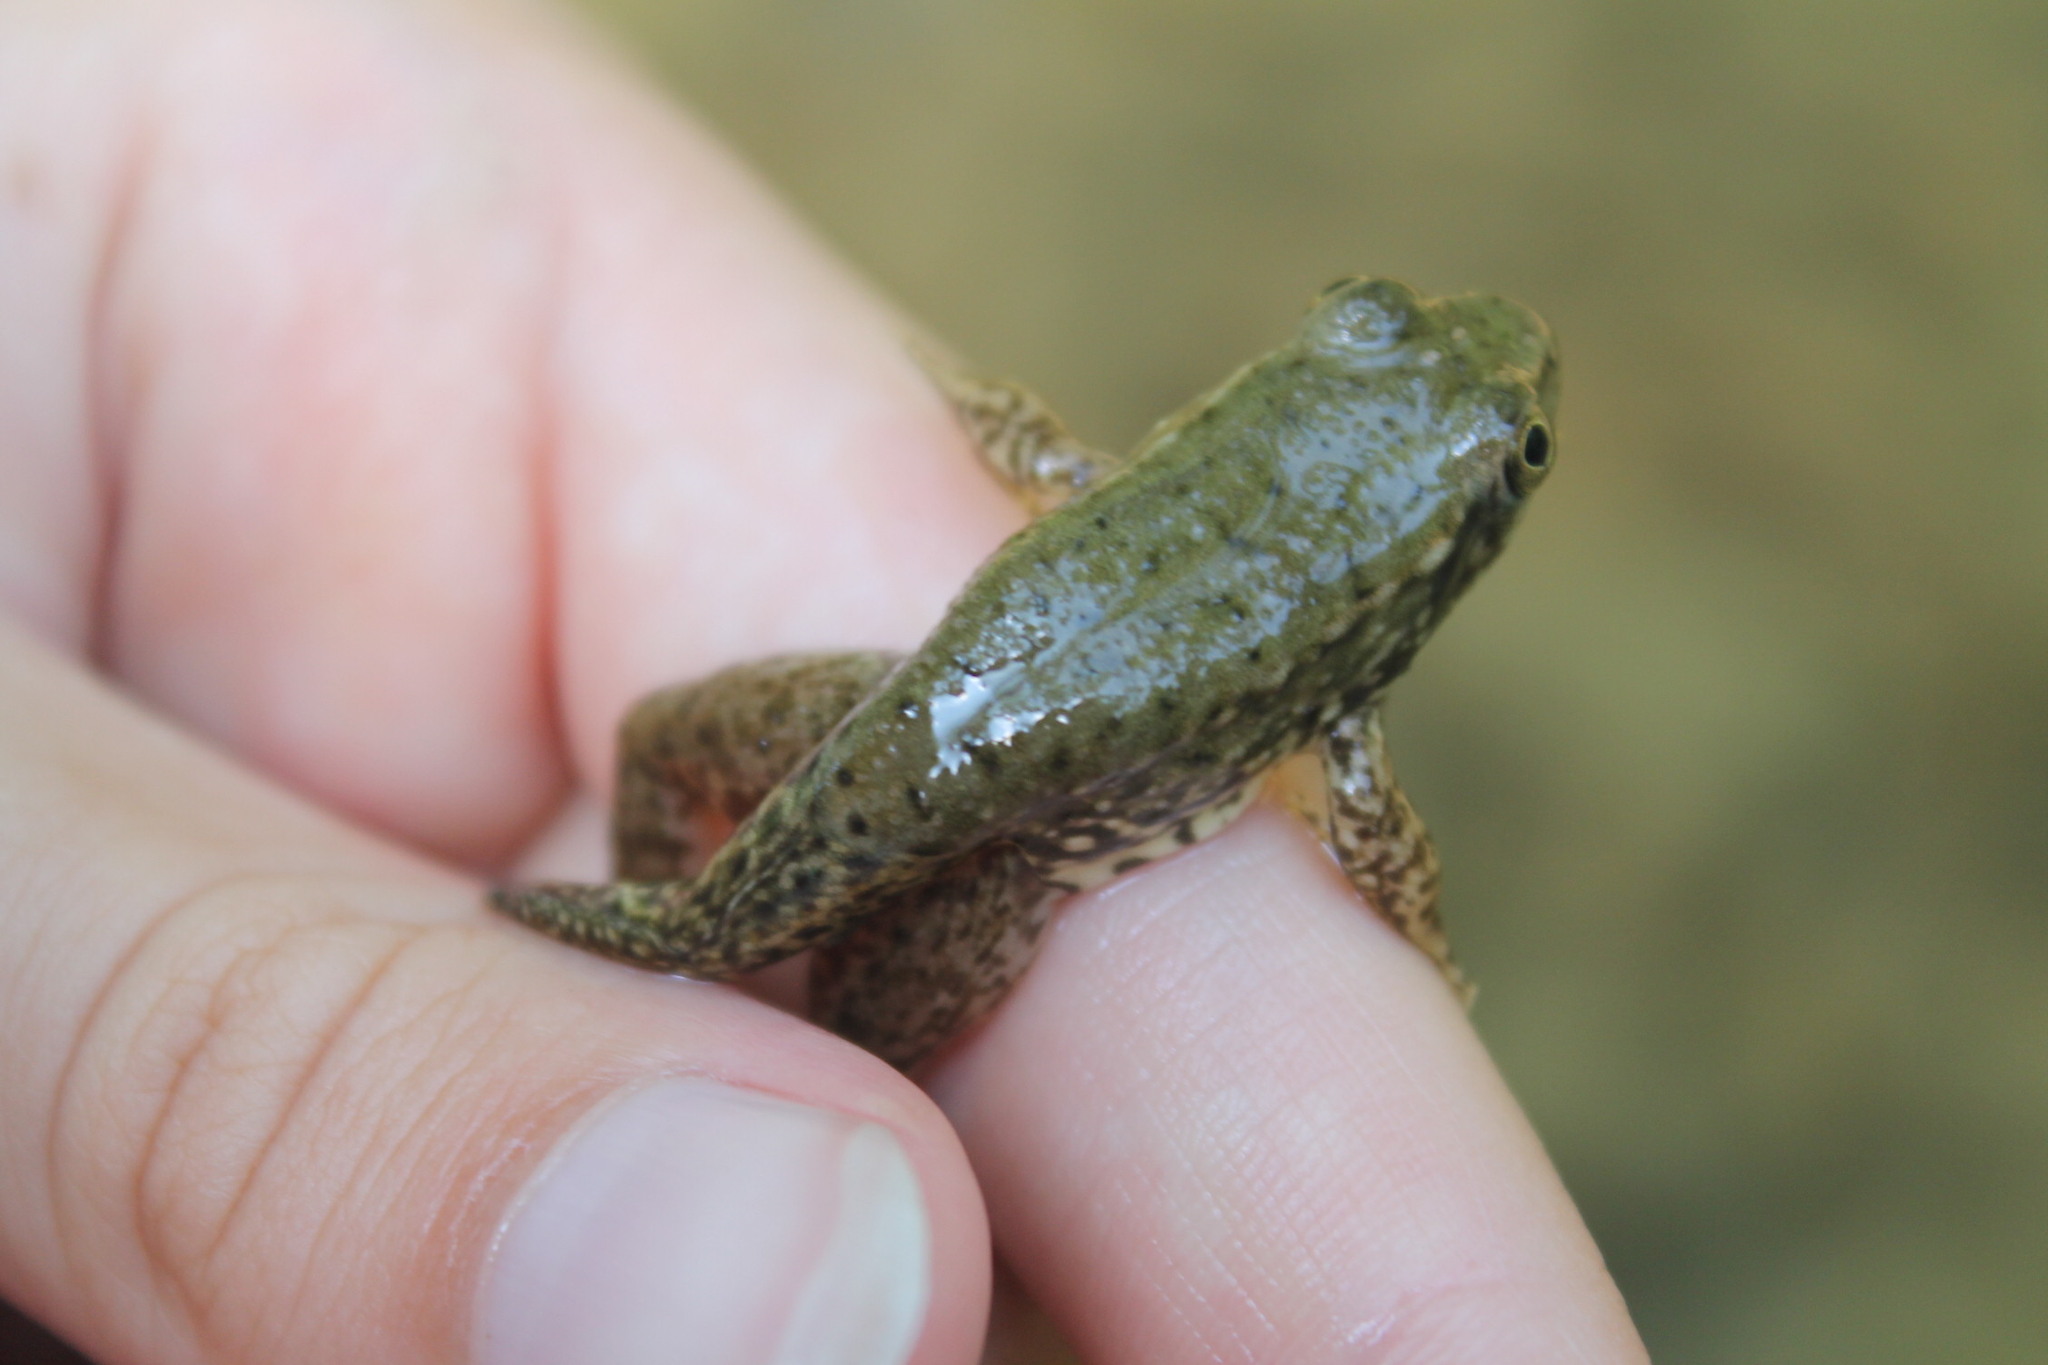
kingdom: Animalia
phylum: Chordata
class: Amphibia
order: Anura
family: Ranidae
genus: Lithobates
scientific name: Lithobates clamitans
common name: Green frog
